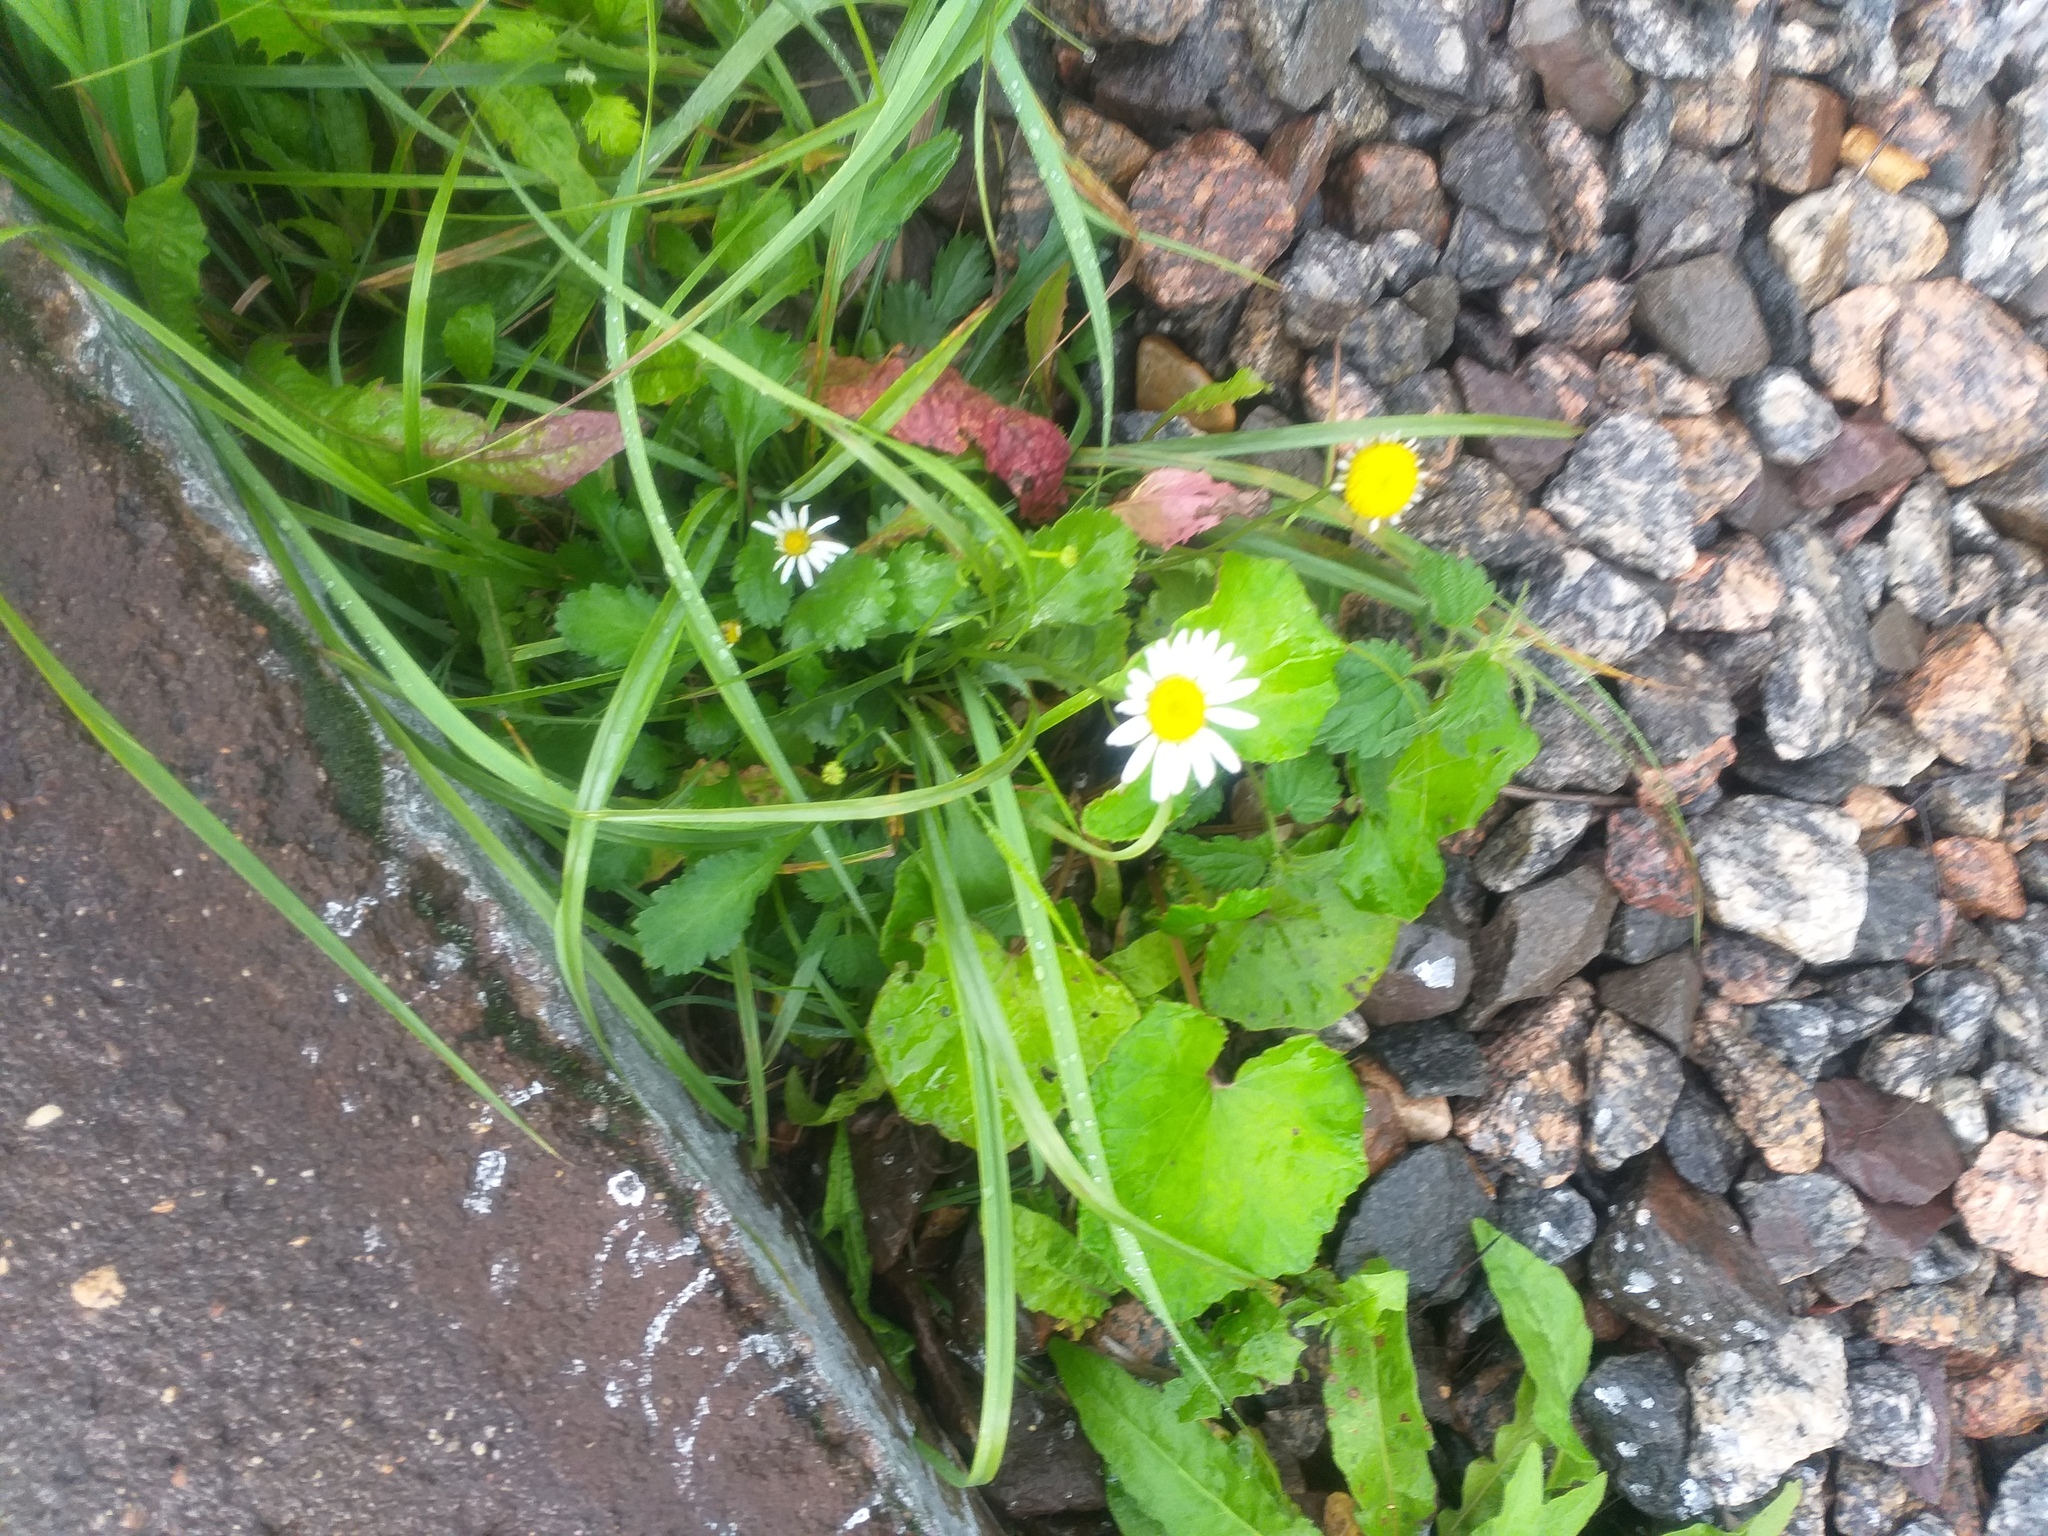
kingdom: Plantae
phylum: Tracheophyta
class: Magnoliopsida
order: Asterales
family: Asteraceae
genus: Leucanthemum
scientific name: Leucanthemum vulgare
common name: Oxeye daisy
